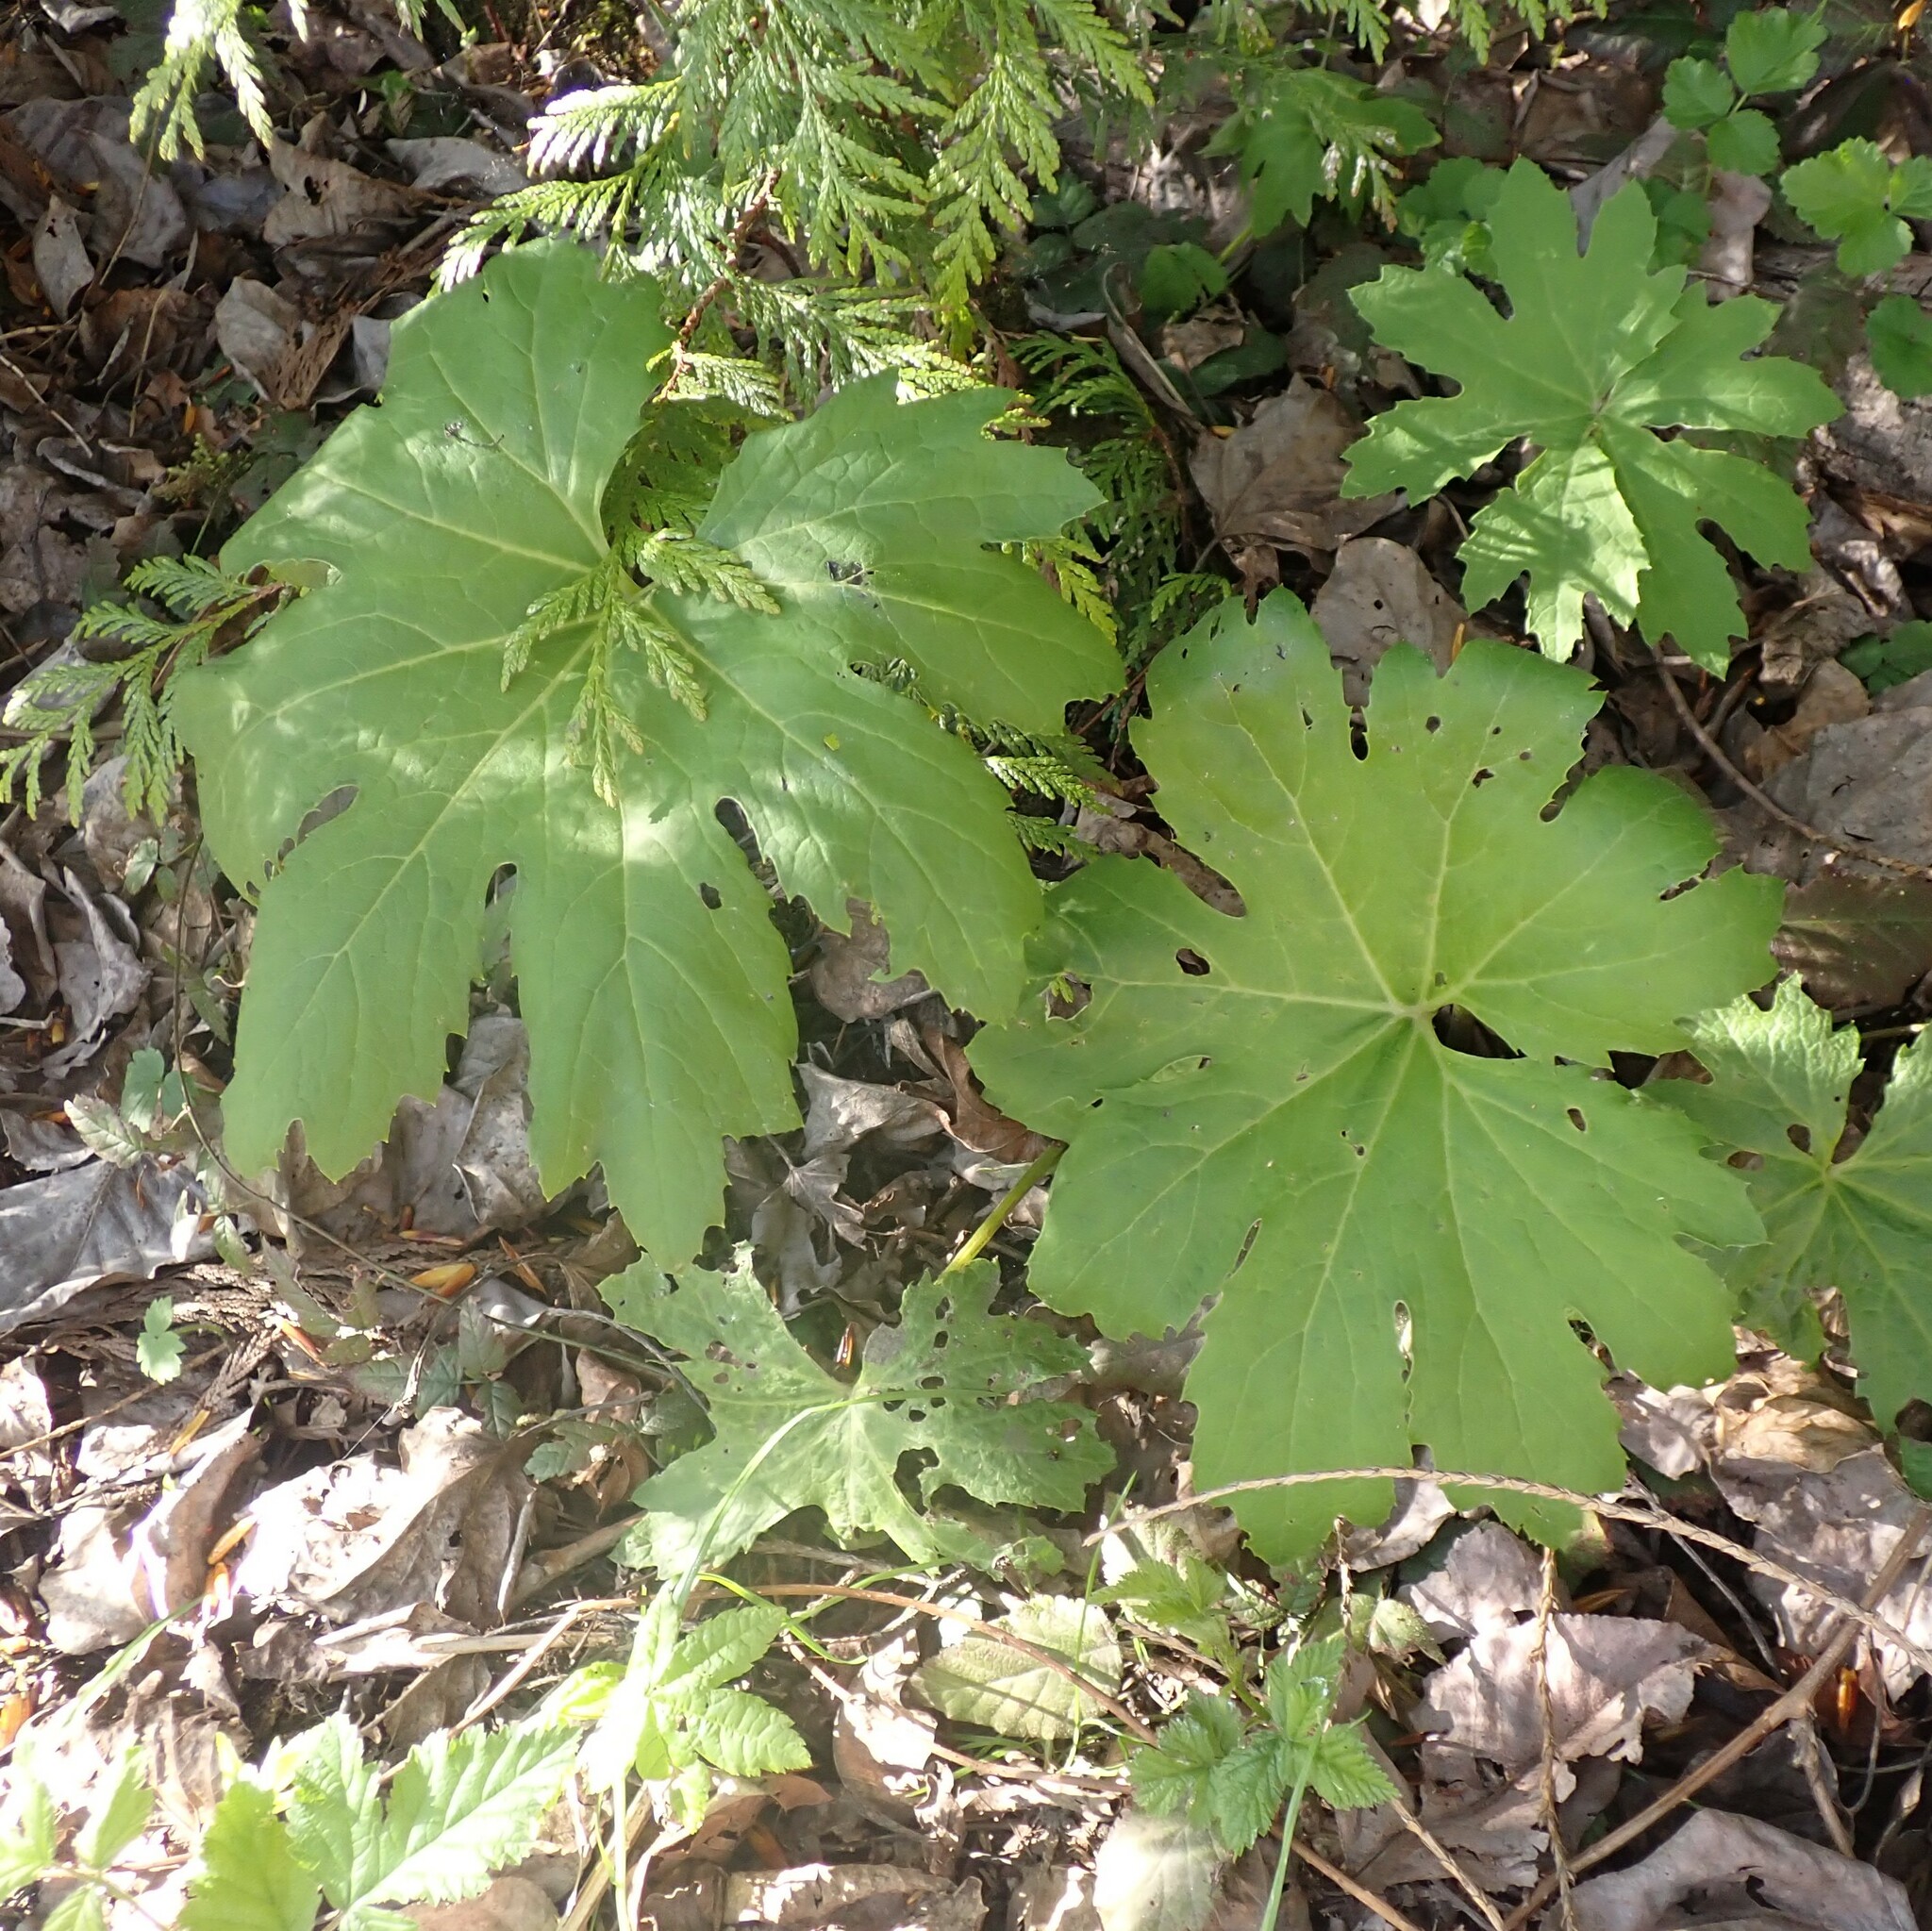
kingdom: Plantae
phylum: Tracheophyta
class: Magnoliopsida
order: Asterales
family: Asteraceae
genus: Petasites
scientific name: Petasites frigidus
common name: Arctic butterbur
